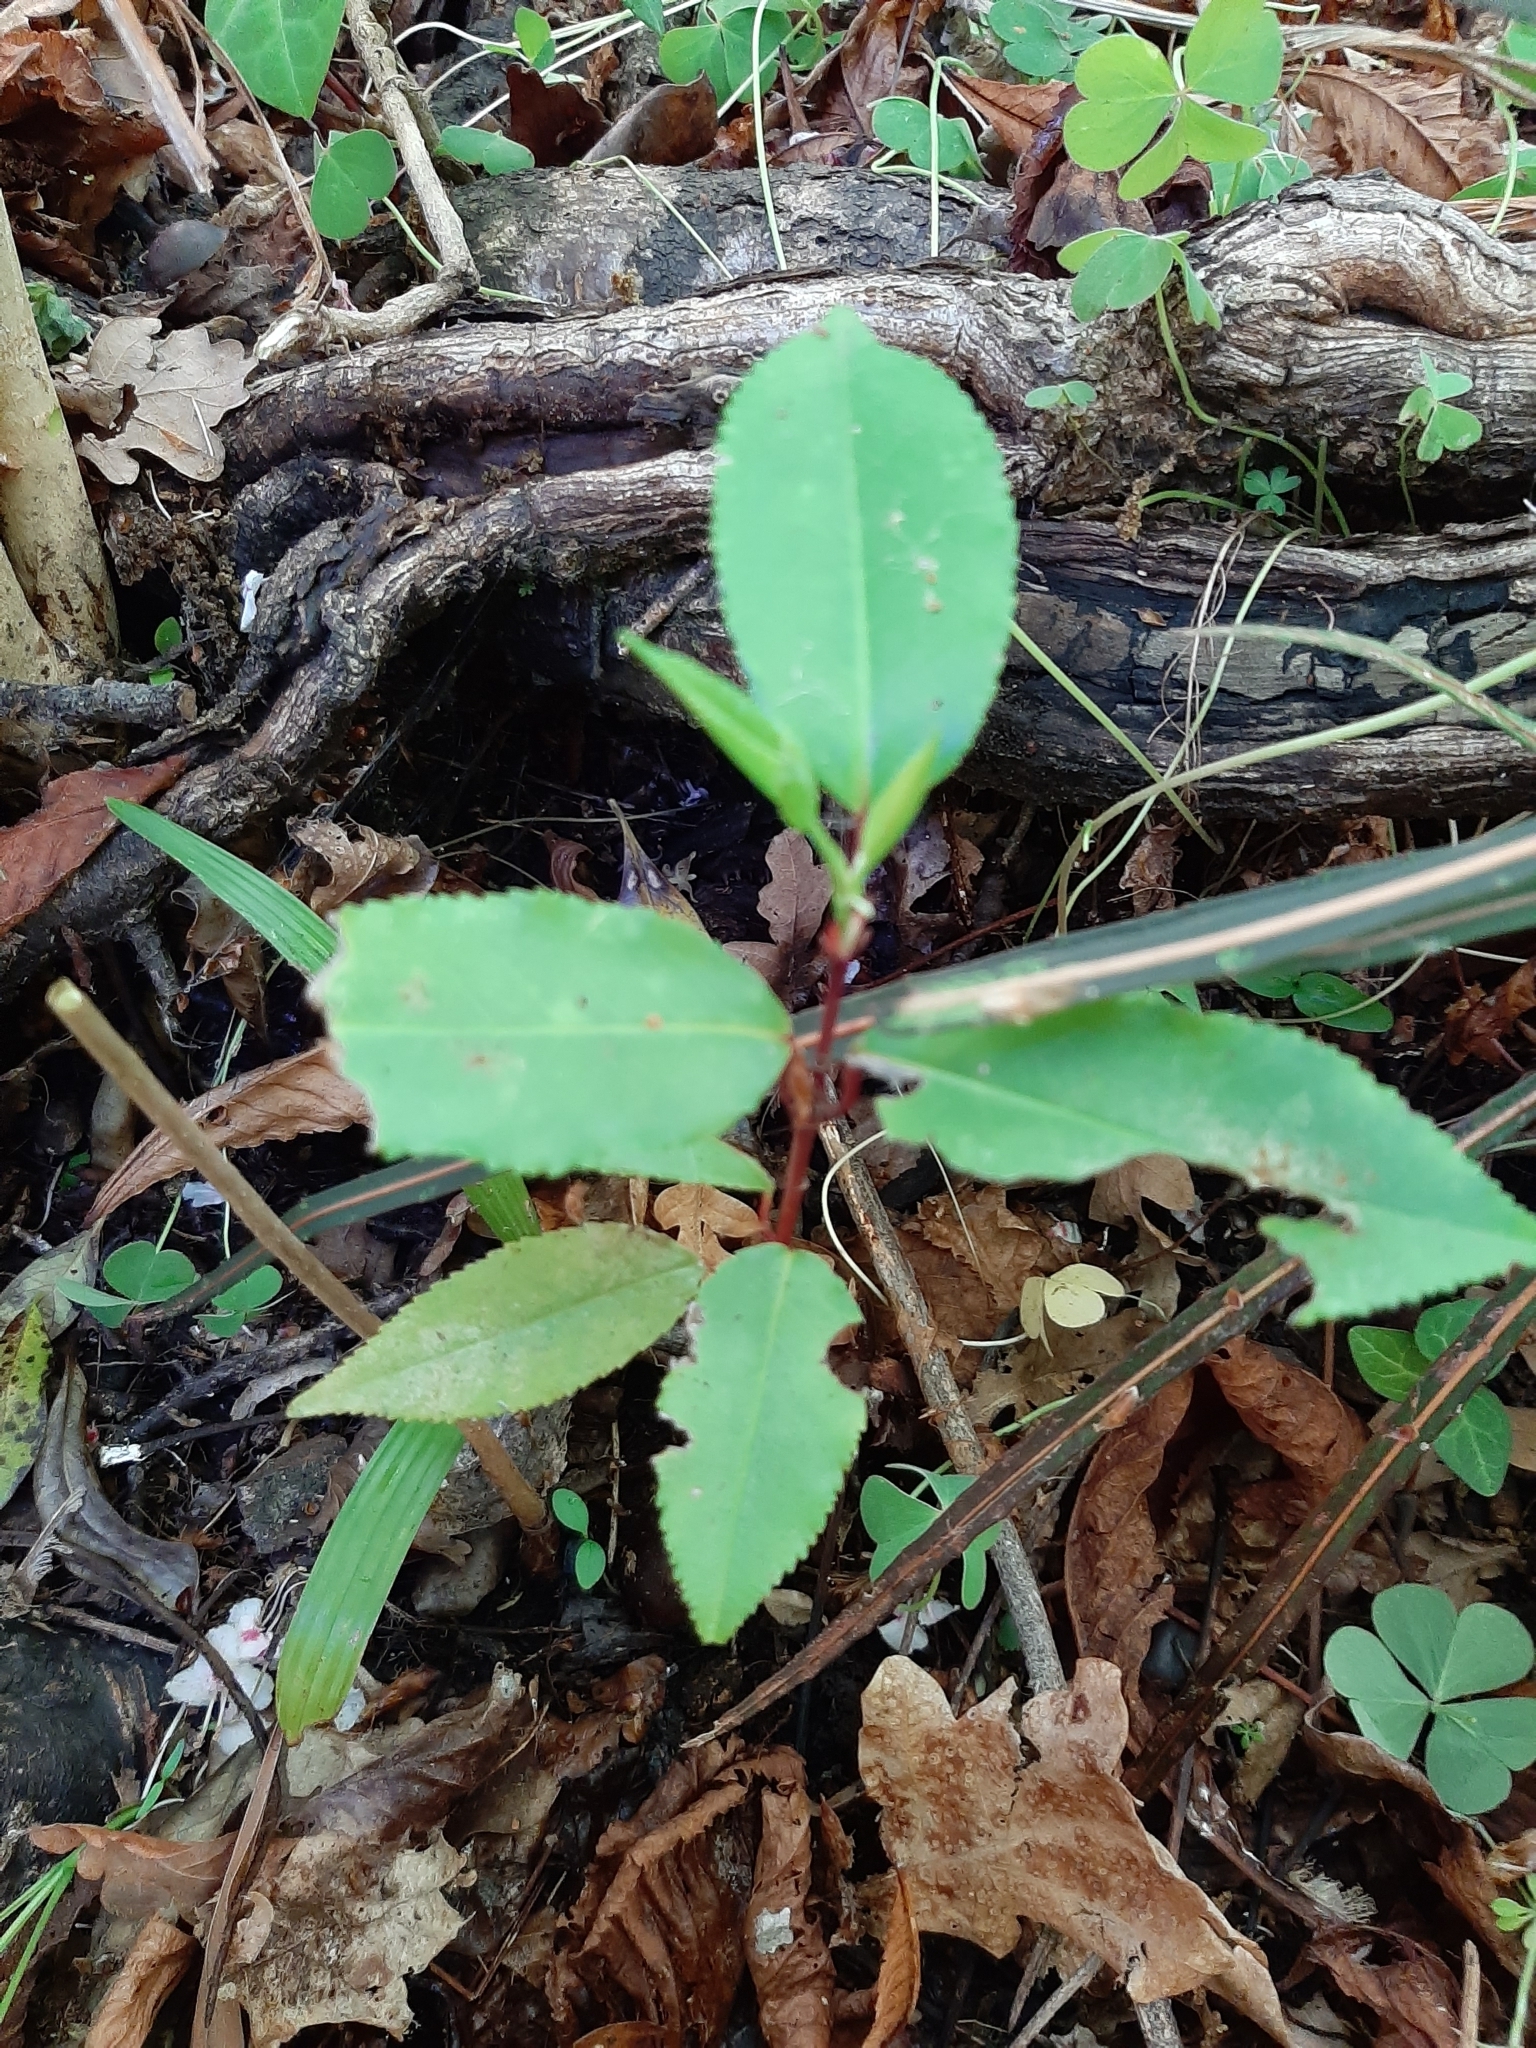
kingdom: Plantae
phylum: Tracheophyta
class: Magnoliopsida
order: Rosales
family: Rosaceae
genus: Prunus
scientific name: Prunus lusitanica
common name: Portugal laurel
